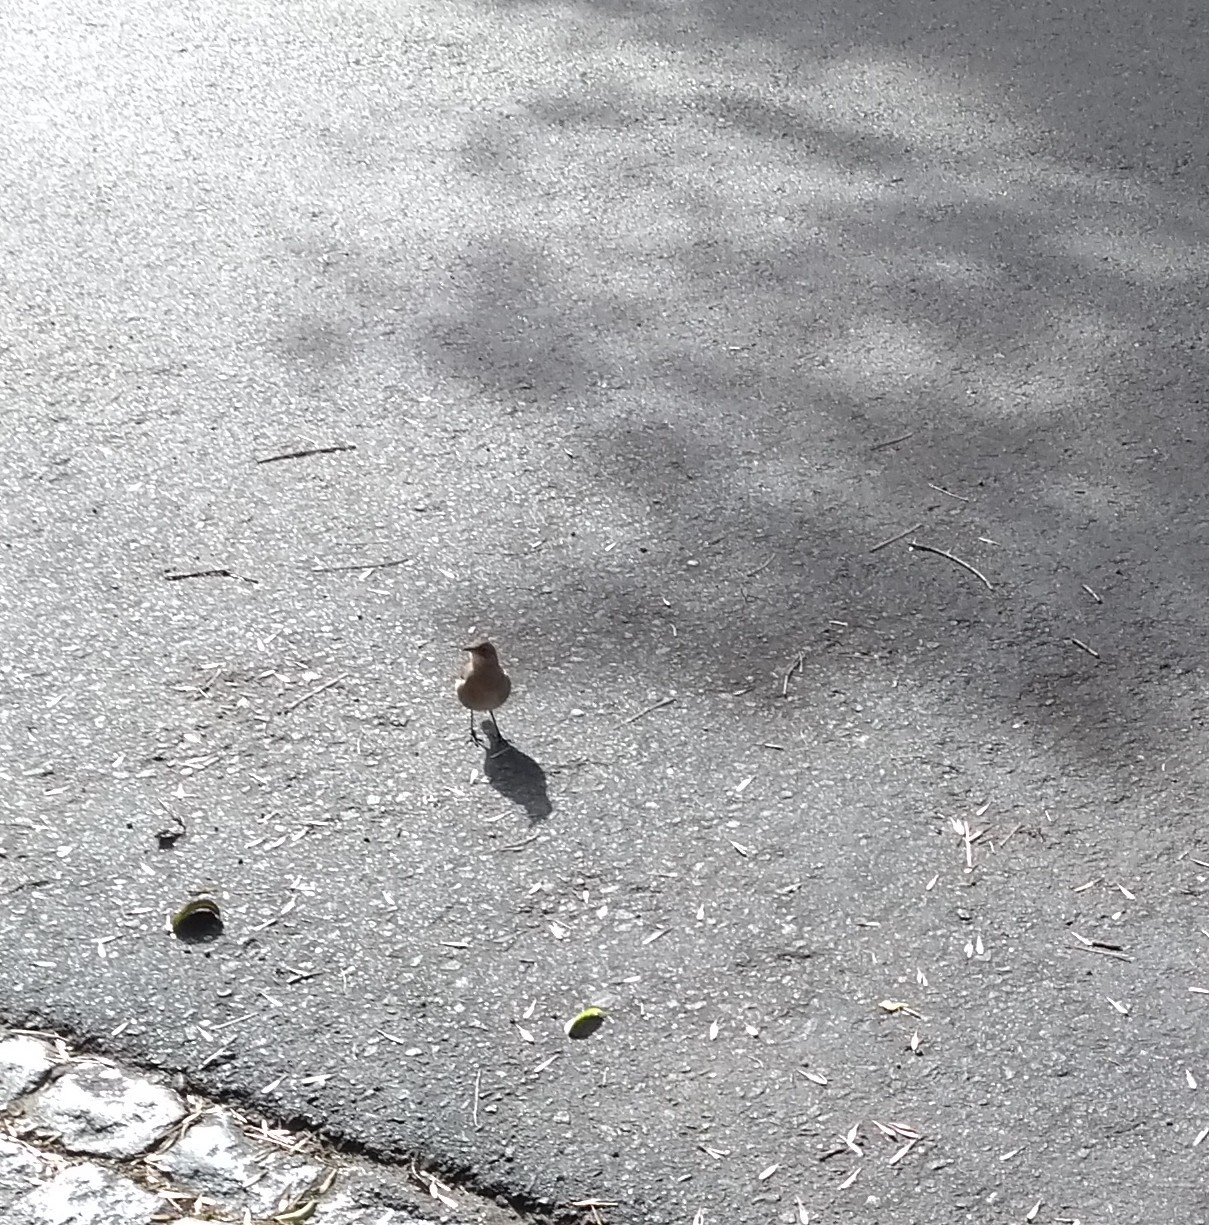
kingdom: Animalia
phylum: Chordata
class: Aves
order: Passeriformes
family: Furnariidae
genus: Furnarius
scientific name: Furnarius rufus
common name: Rufous hornero
